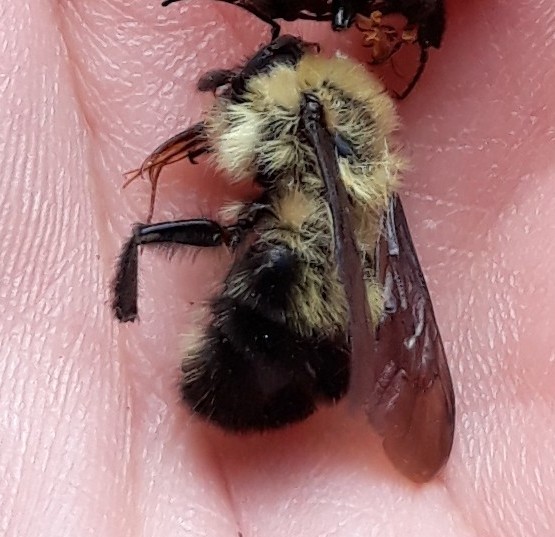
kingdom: Animalia
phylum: Arthropoda
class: Insecta
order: Hymenoptera
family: Apidae
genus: Bombus
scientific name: Bombus bimaculatus
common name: Two-spotted bumble bee
